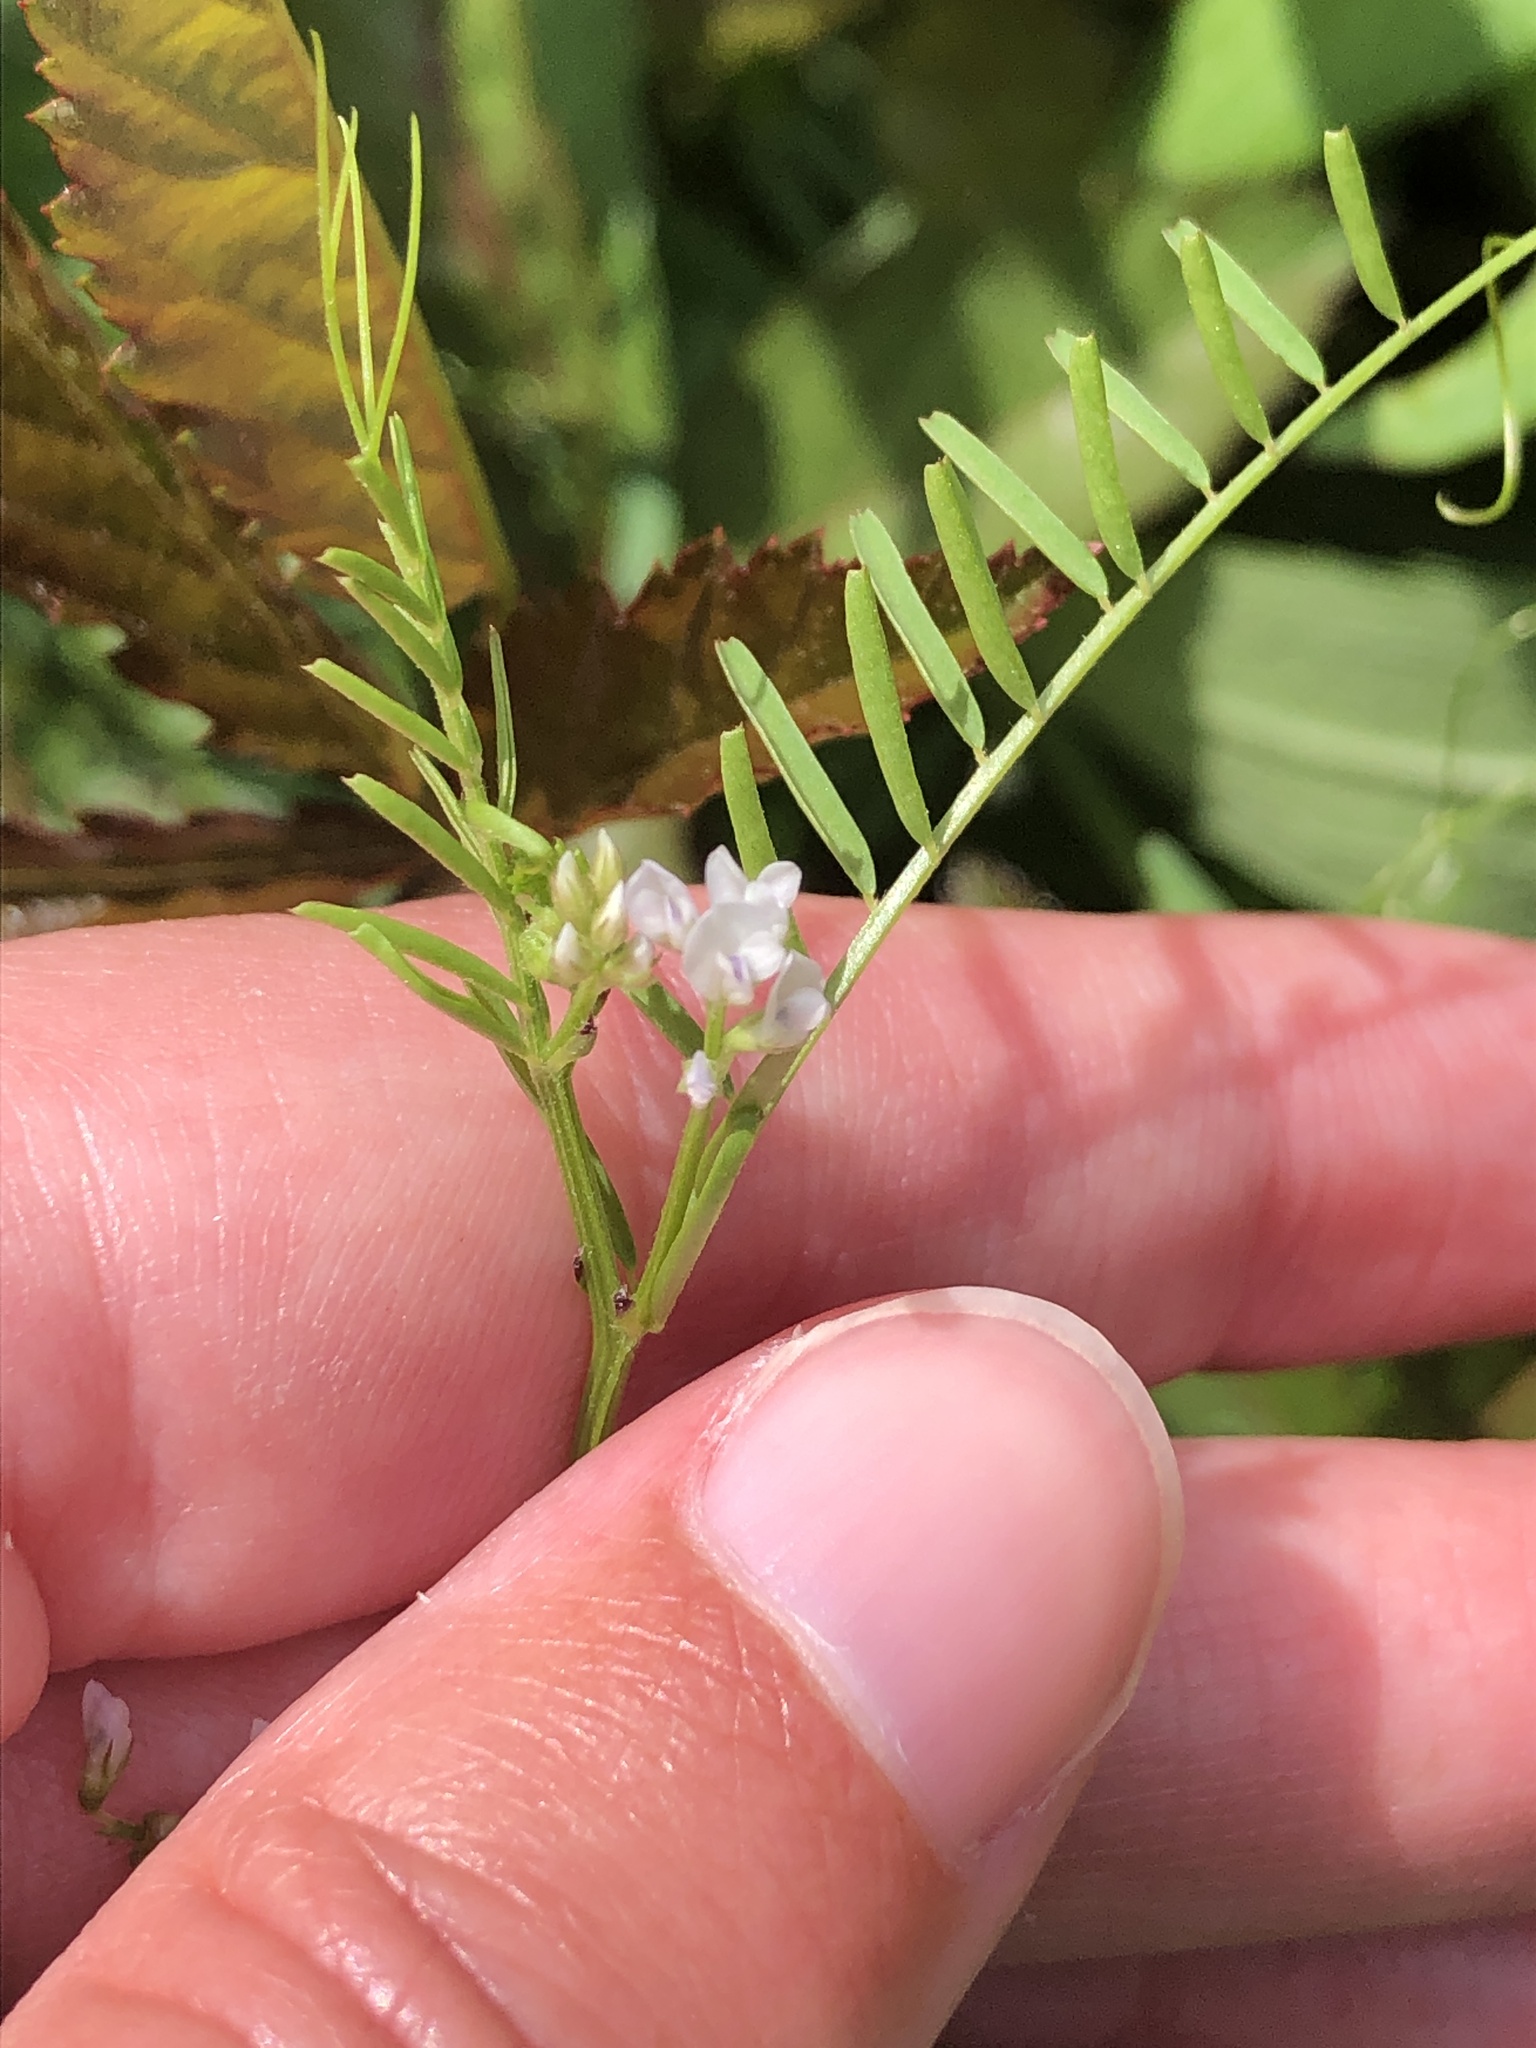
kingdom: Plantae
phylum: Tracheophyta
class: Magnoliopsida
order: Fabales
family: Fabaceae
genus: Vicia
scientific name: Vicia hirsuta
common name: Tiny vetch
